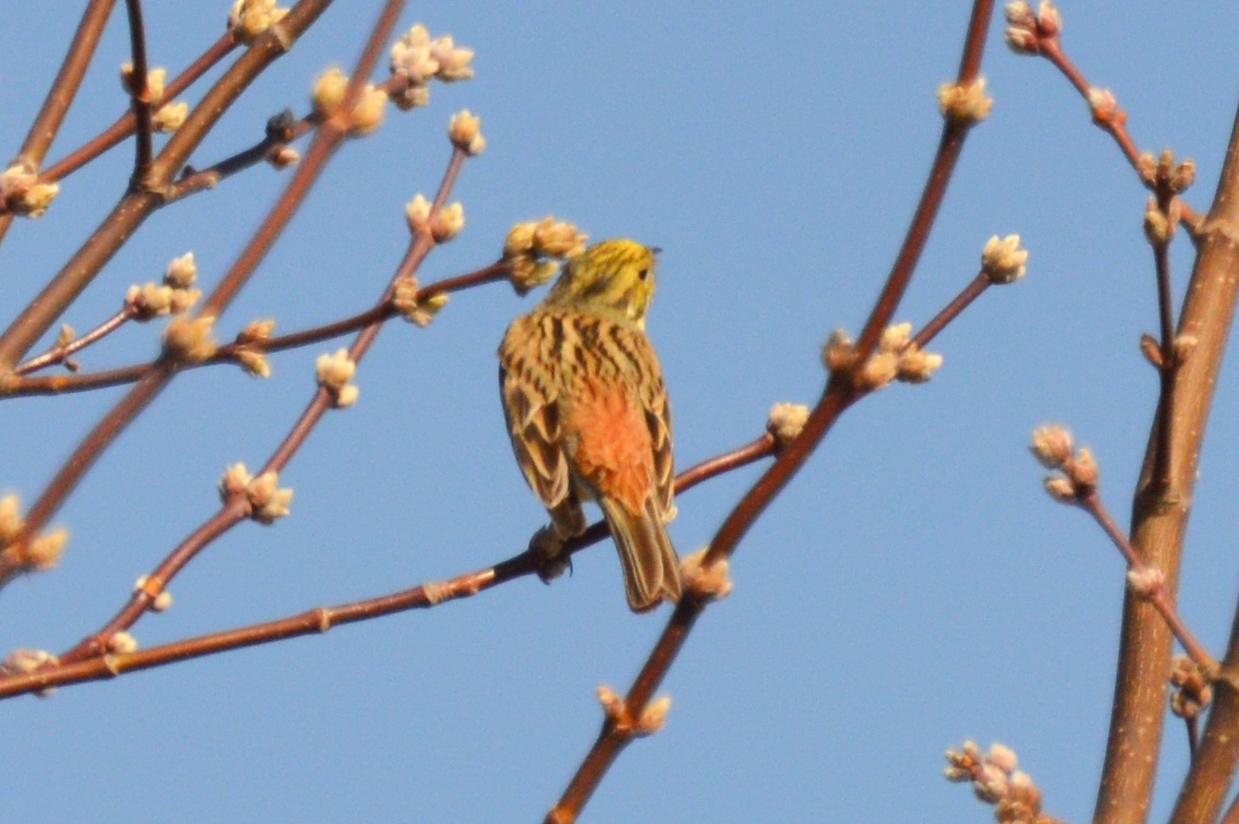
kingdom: Animalia
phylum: Chordata
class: Aves
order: Passeriformes
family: Emberizidae
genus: Emberiza
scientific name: Emberiza citrinella
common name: Yellowhammer
